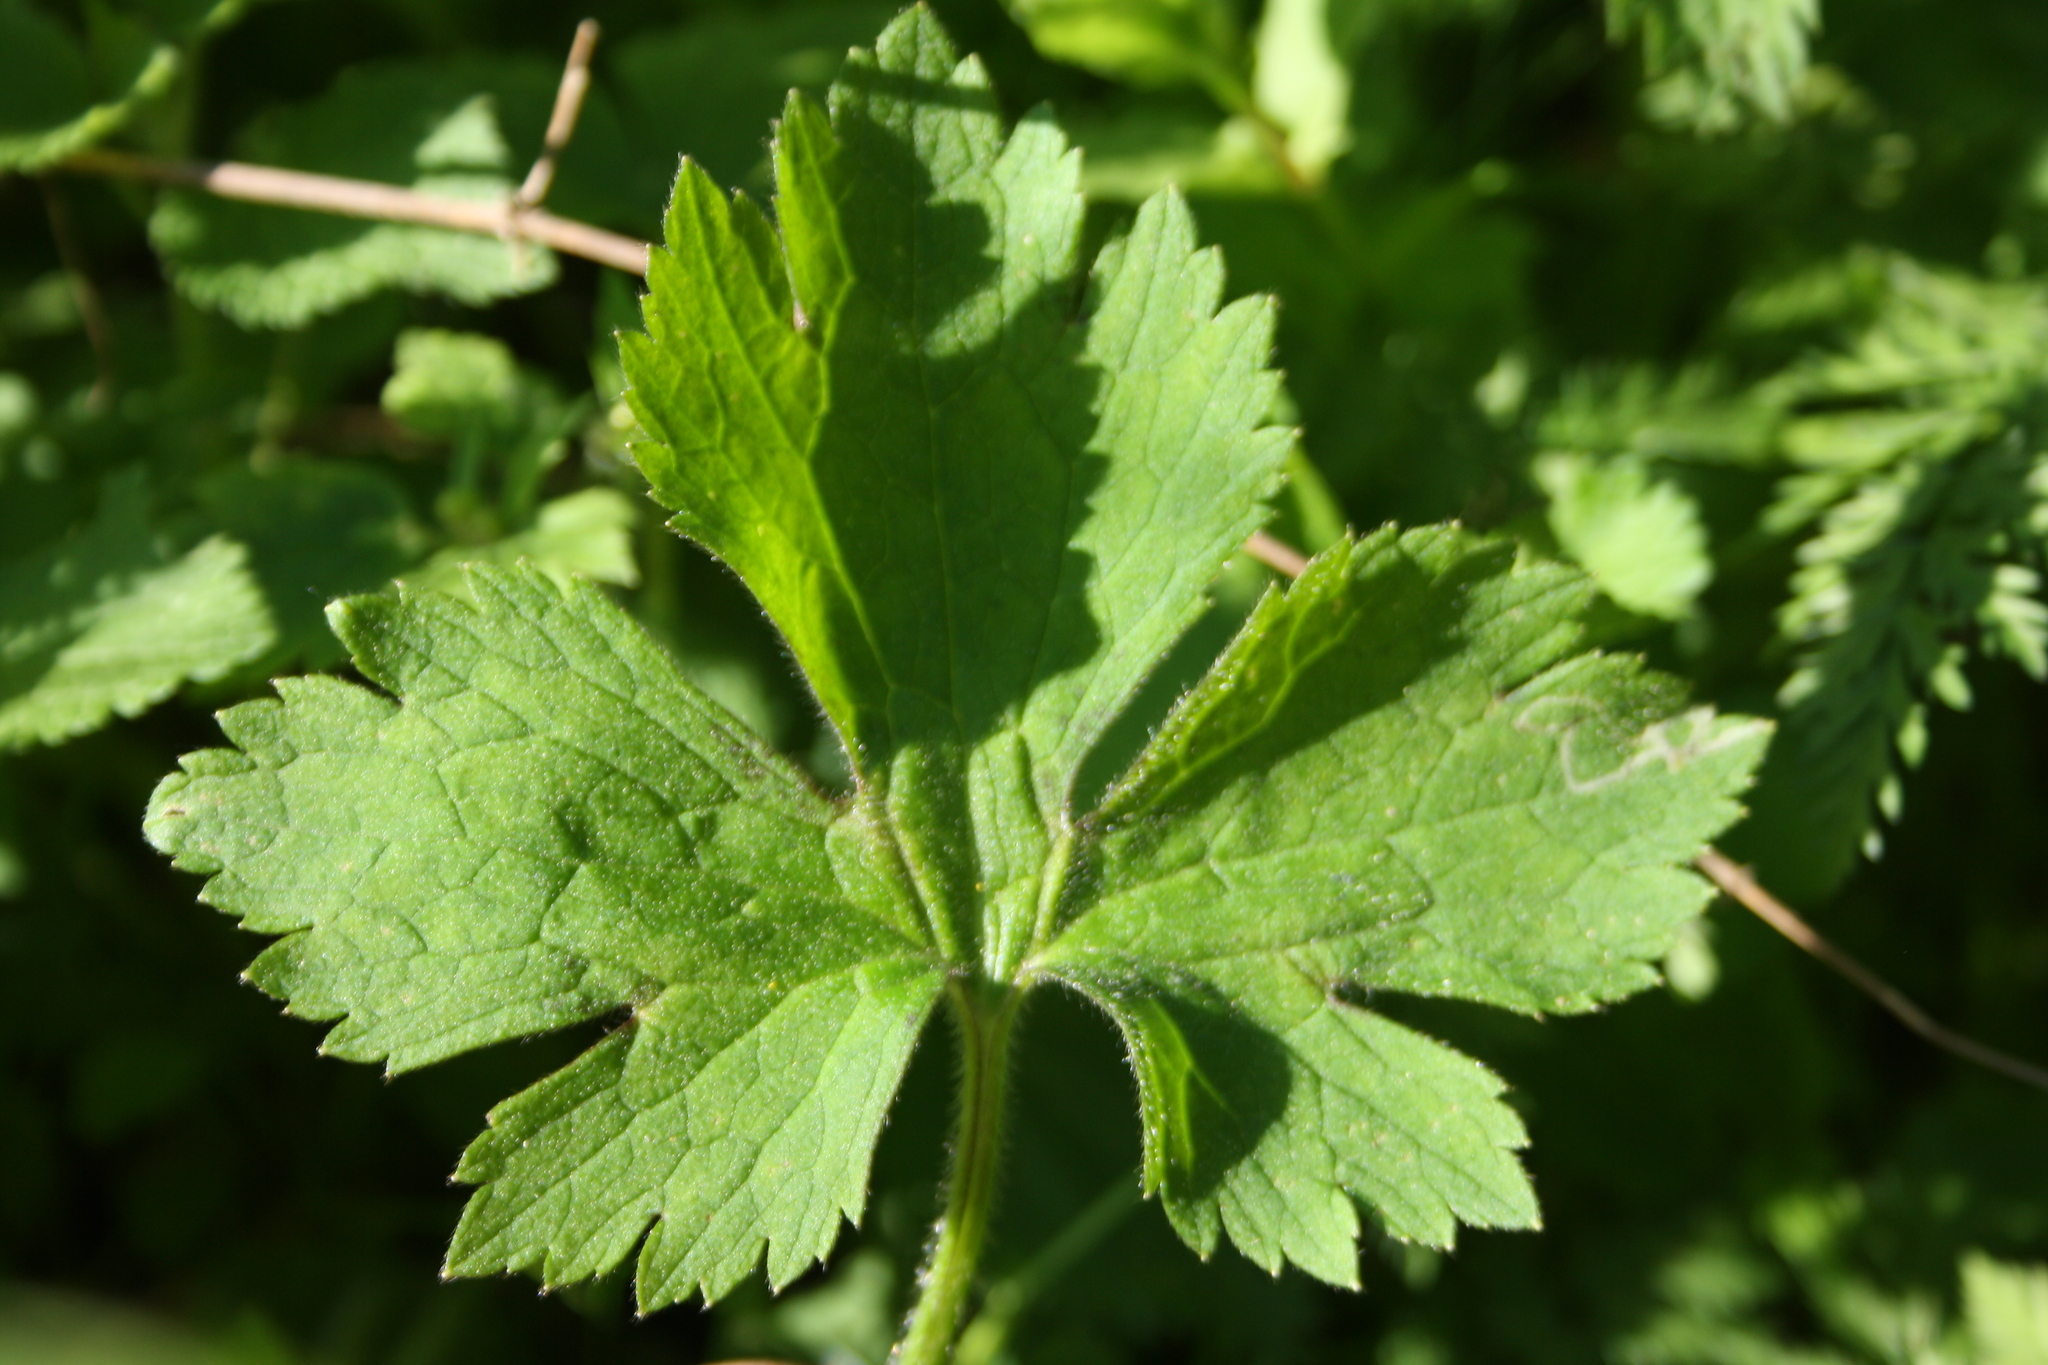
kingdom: Plantae
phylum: Tracheophyta
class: Magnoliopsida
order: Ranunculales
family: Ranunculaceae
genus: Ranunculus
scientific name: Ranunculus lanuginosus
